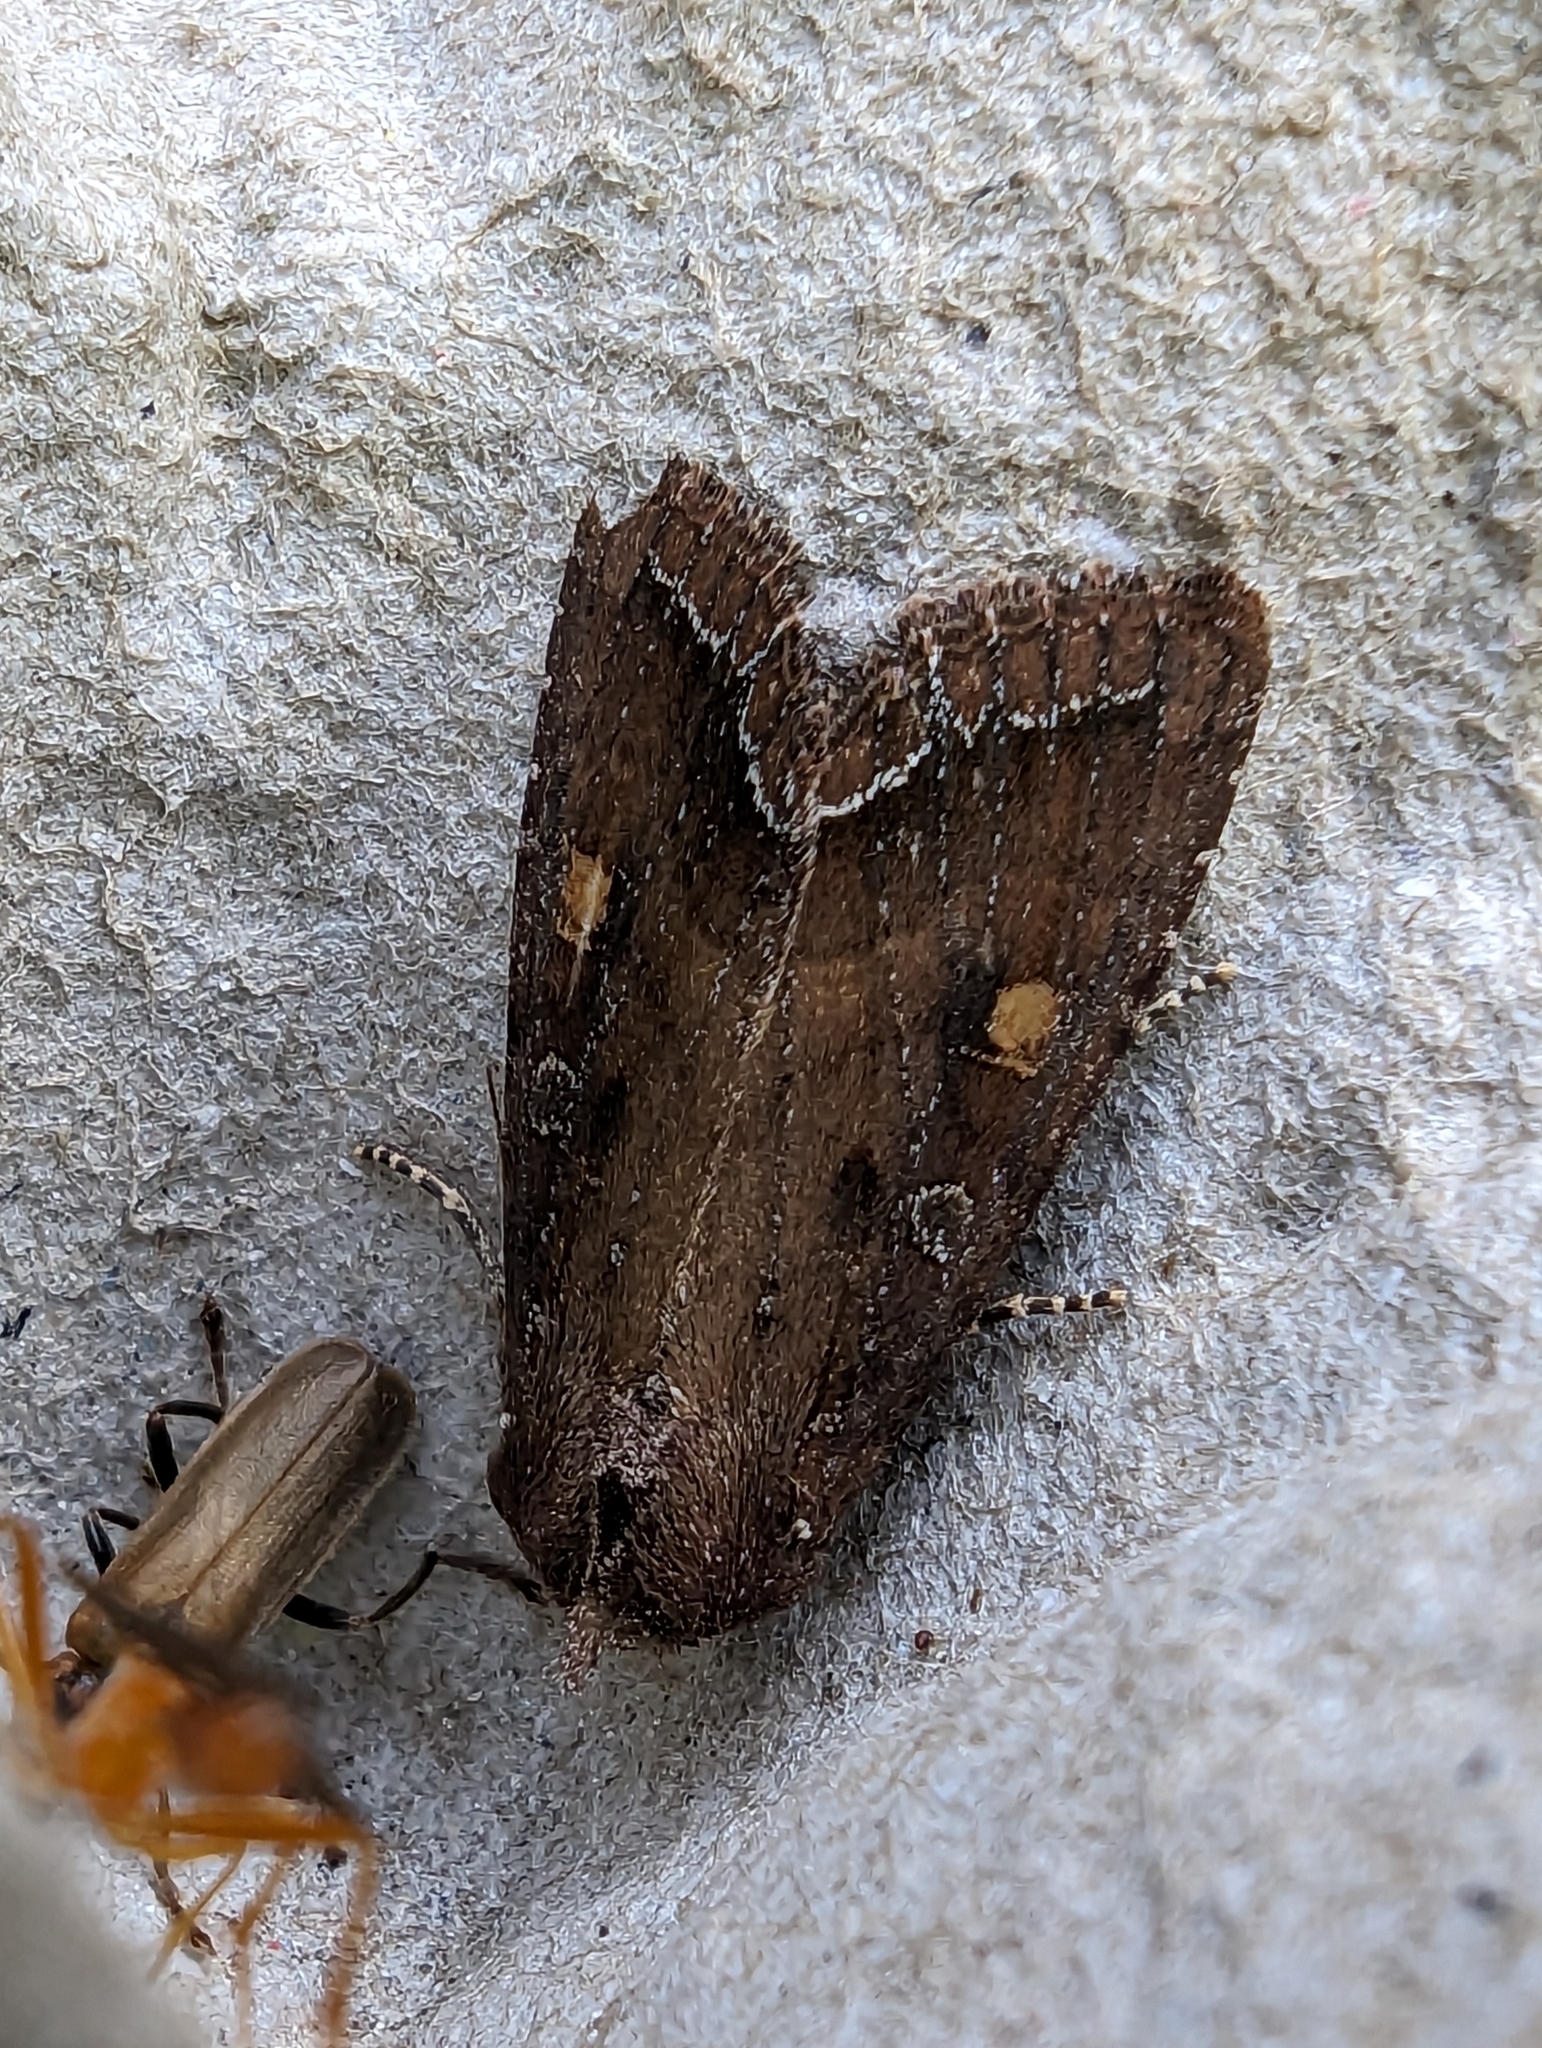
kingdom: Animalia
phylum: Arthropoda
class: Insecta
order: Lepidoptera
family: Noctuidae
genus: Lacanobia
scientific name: Lacanobia oleracea
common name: Bright-line brown-eye
